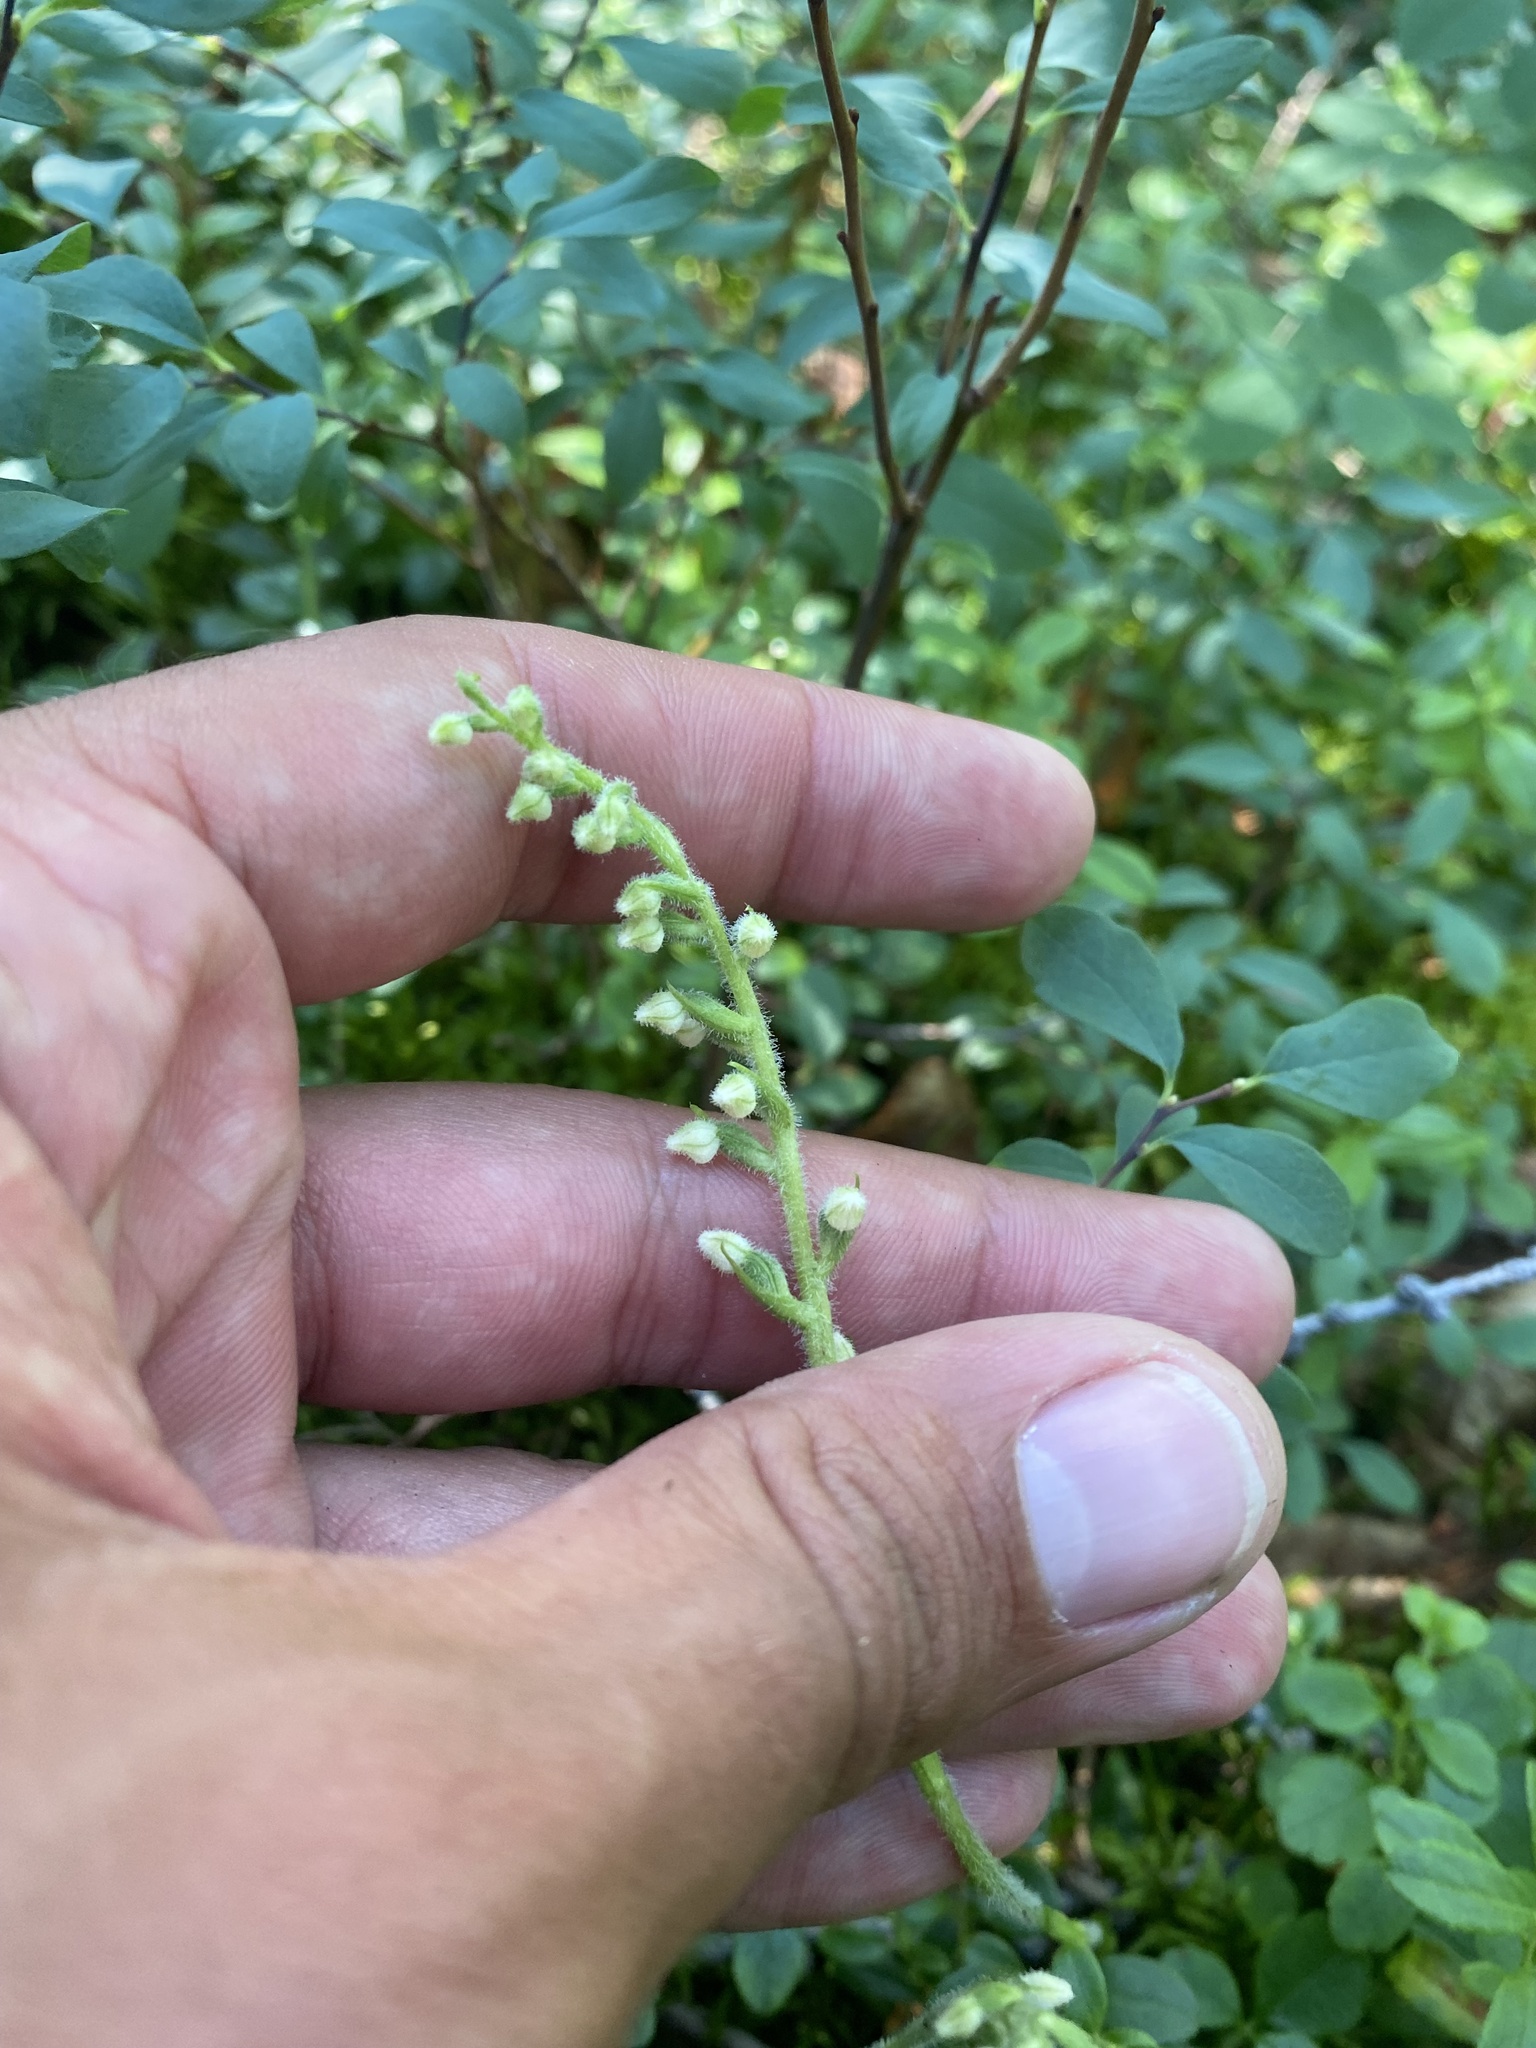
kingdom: Plantae
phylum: Tracheophyta
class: Liliopsida
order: Asparagales
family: Orchidaceae
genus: Goodyera
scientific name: Goodyera repens
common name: Creeping lady's-tresses
